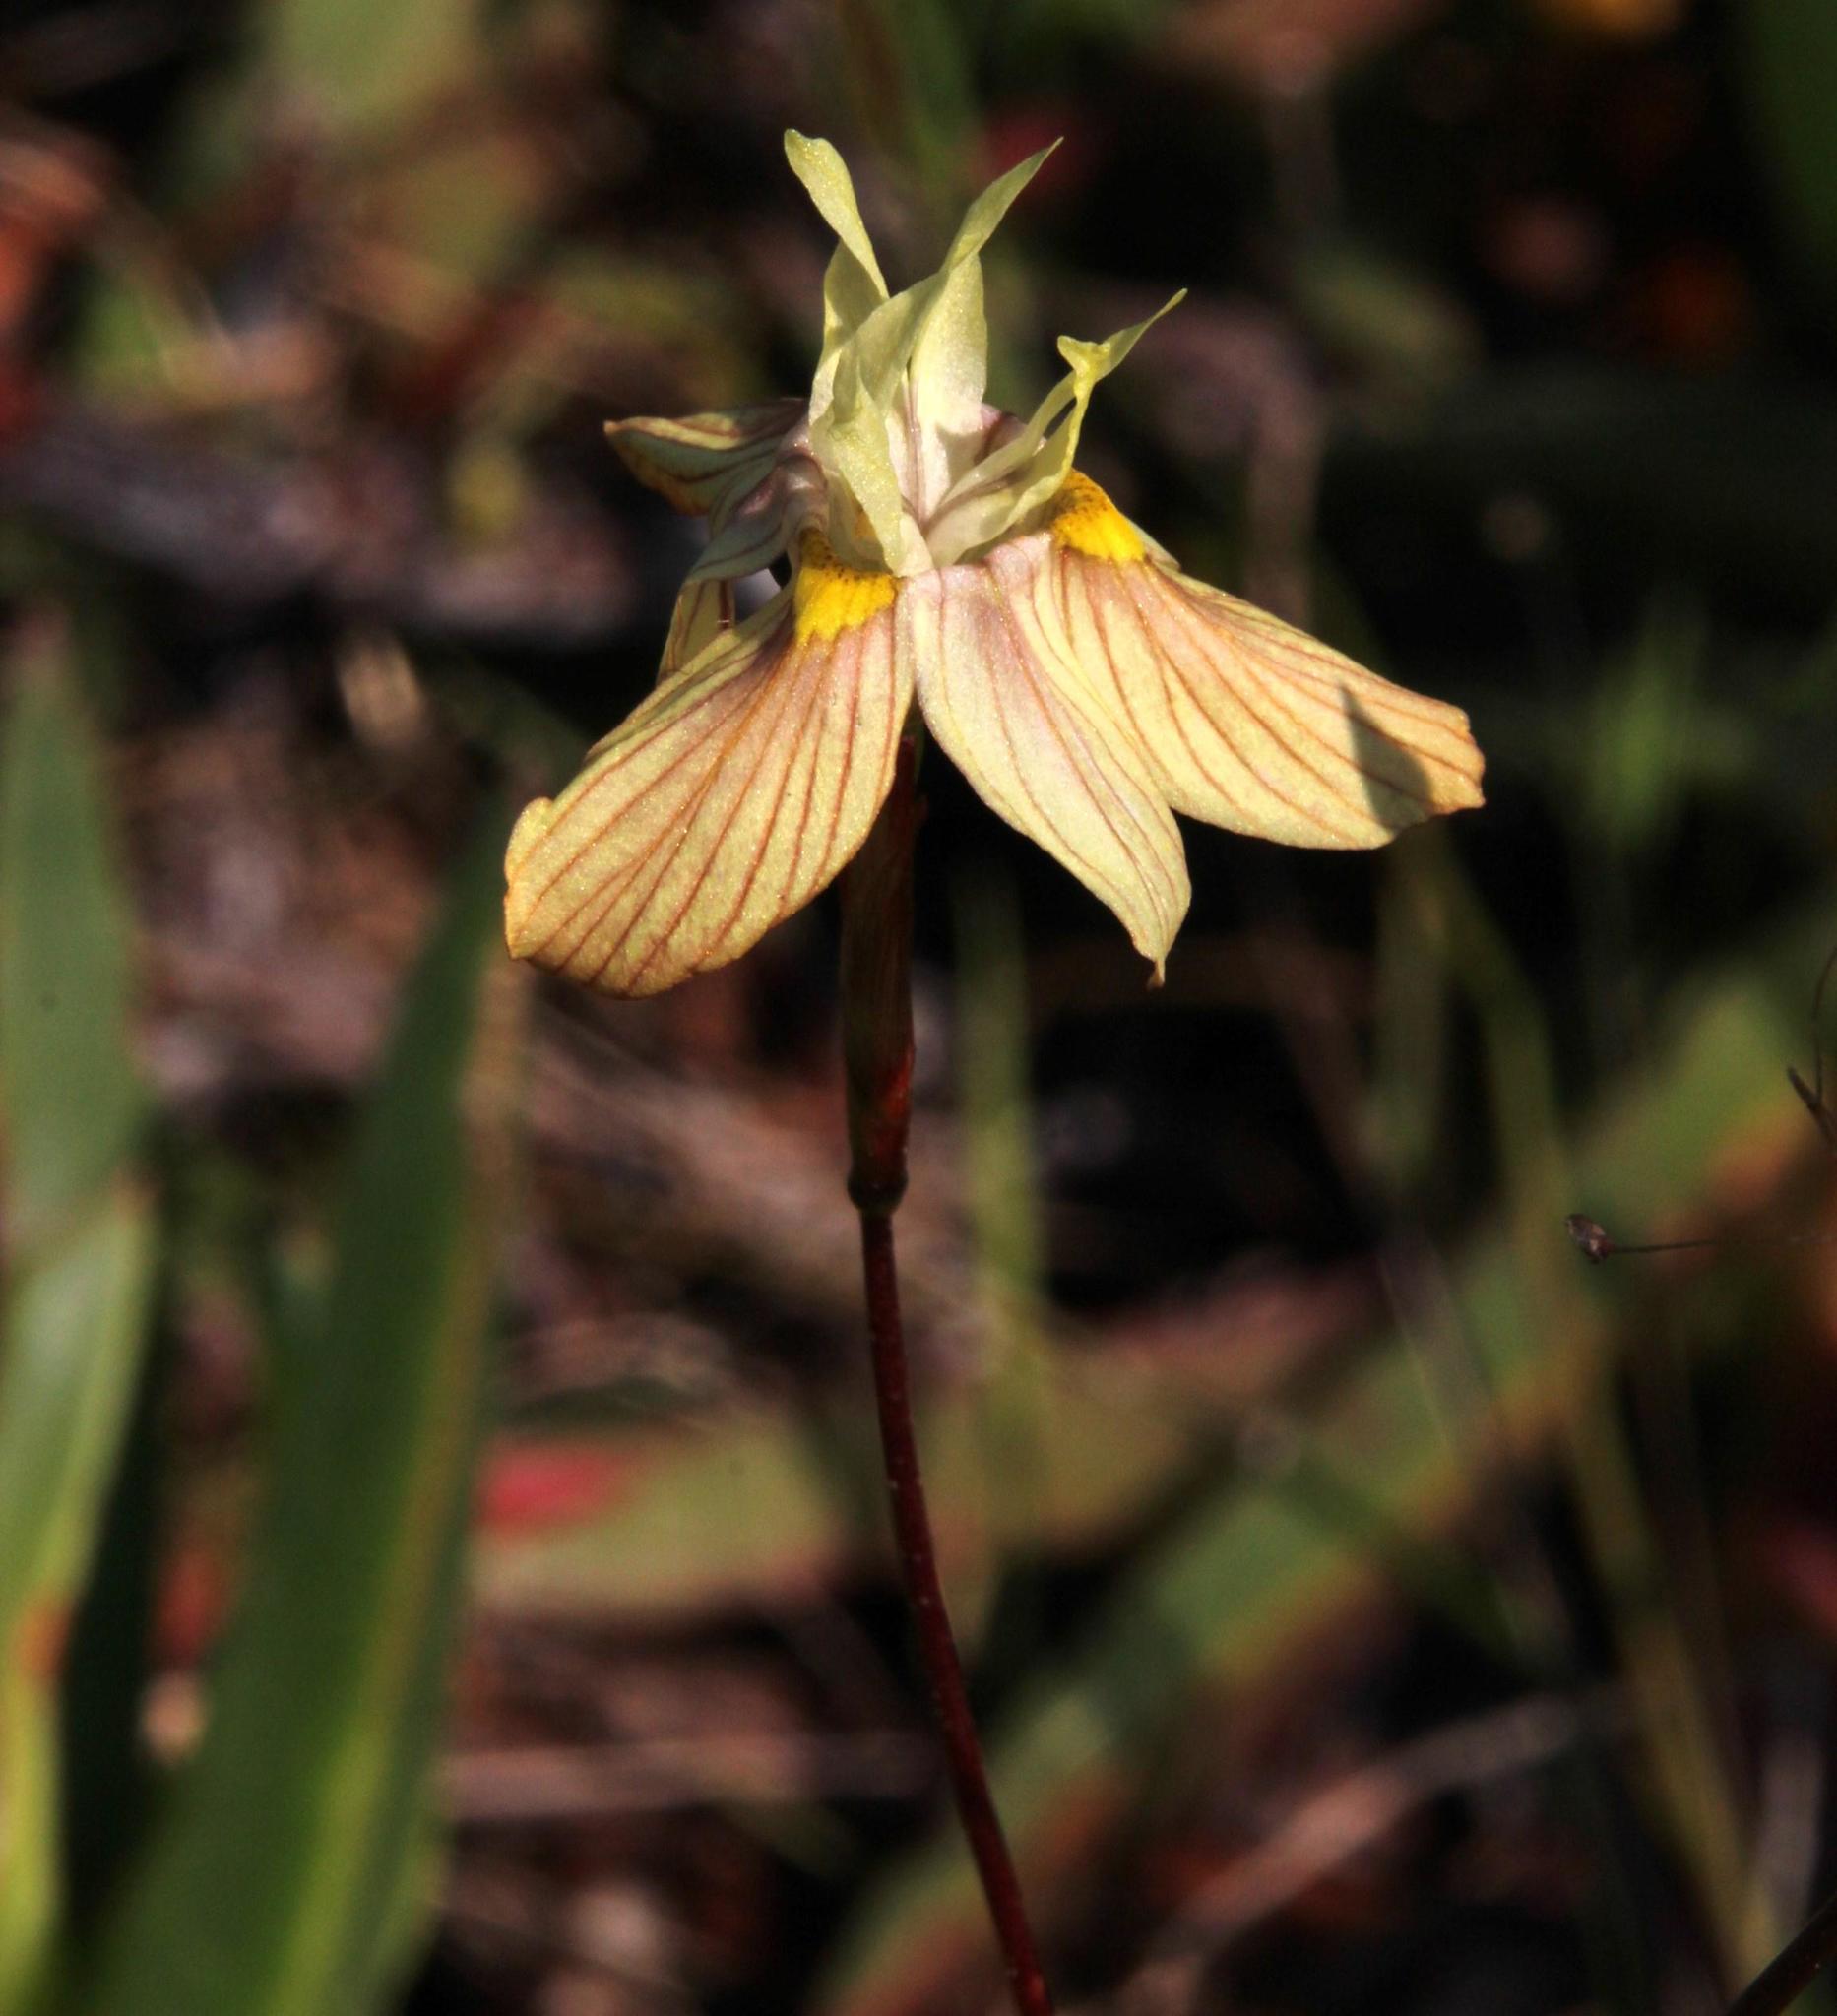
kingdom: Plantae
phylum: Tracheophyta
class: Liliopsida
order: Asparagales
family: Iridaceae
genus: Moraea
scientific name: Moraea gawleri
